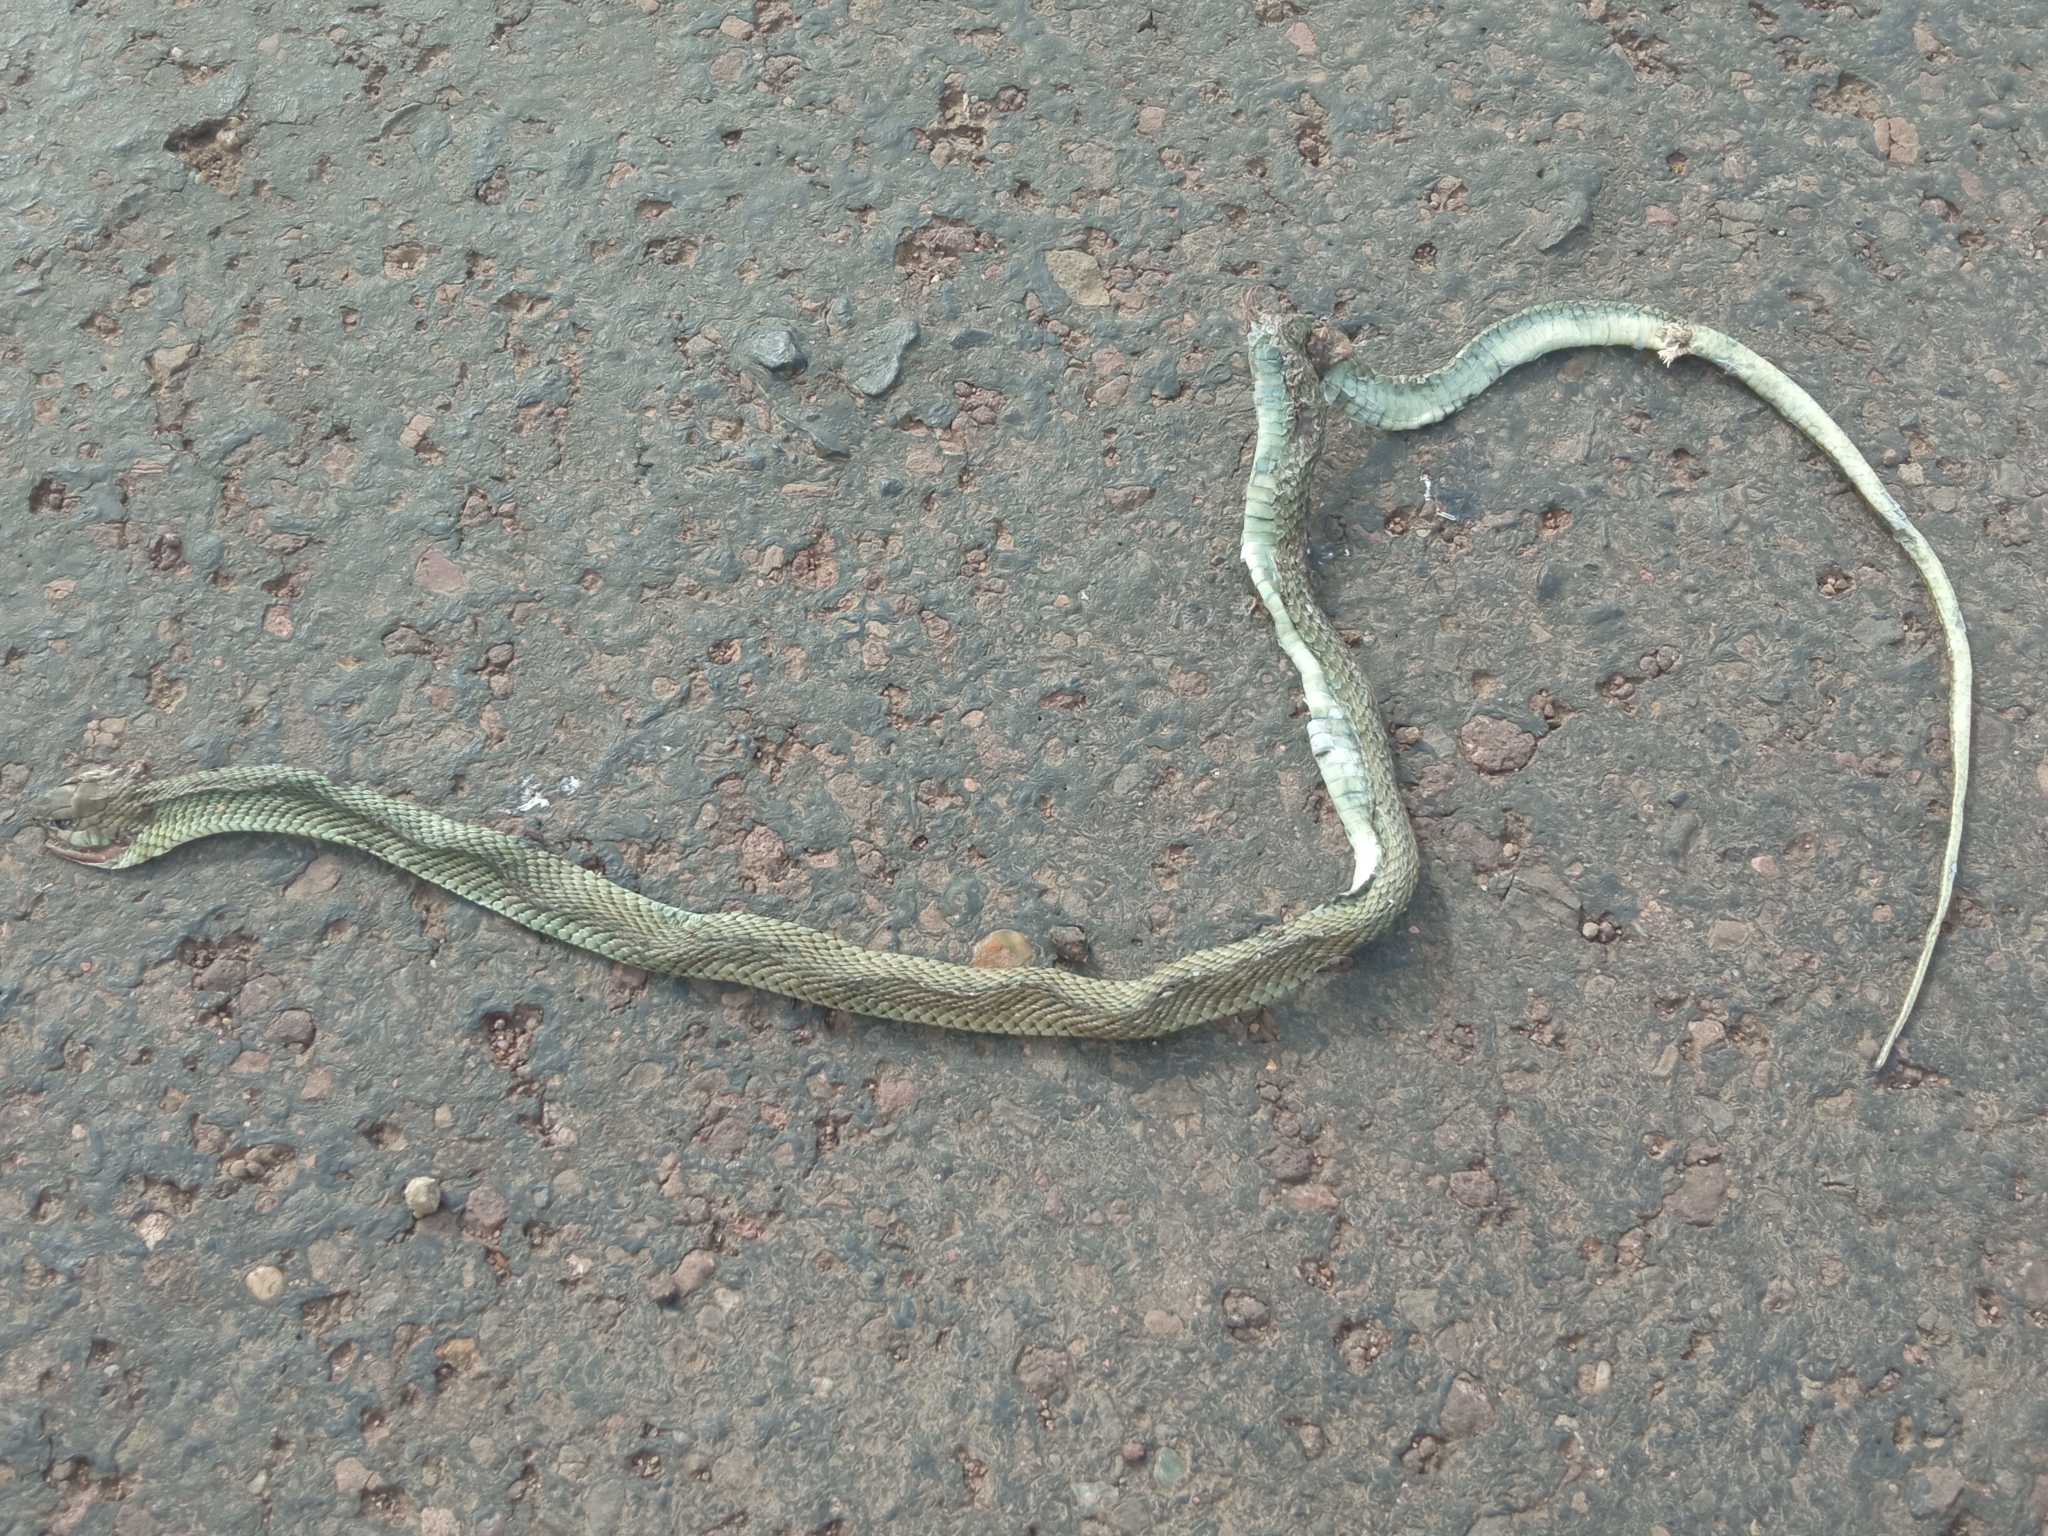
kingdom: Animalia
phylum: Chordata
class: Squamata
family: Colubridae
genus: Philodryas
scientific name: Philodryas patagoniensis
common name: Patagonia green racer
